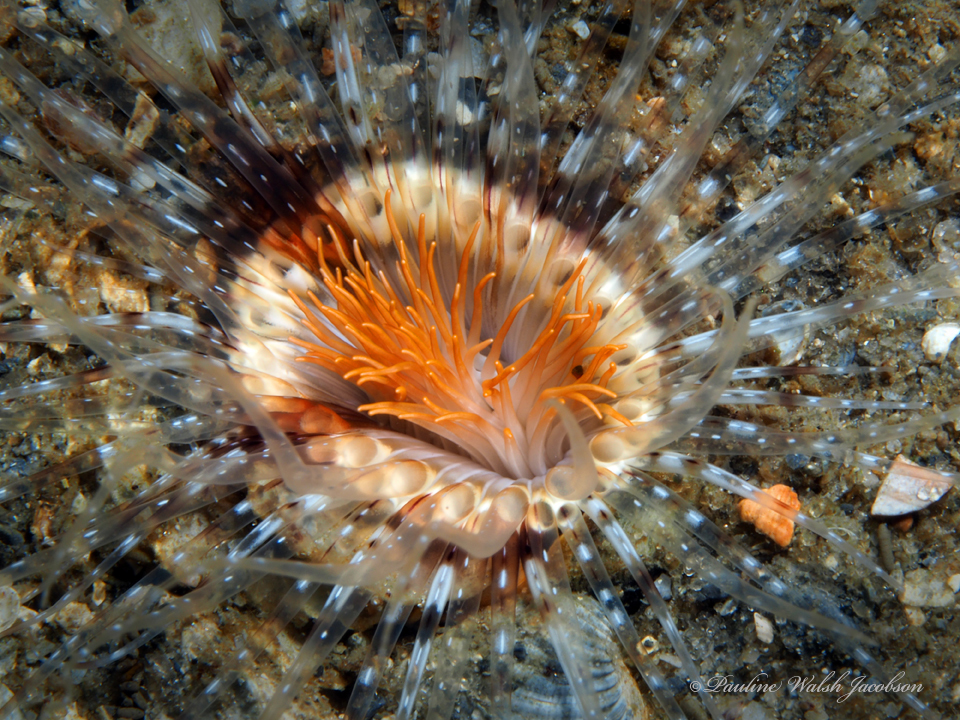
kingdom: Animalia
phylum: Cnidaria
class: Anthozoa
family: Cerianthidae
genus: Ceriantheopsis
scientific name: Ceriantheopsis americana
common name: American tube-dwelling anemone
